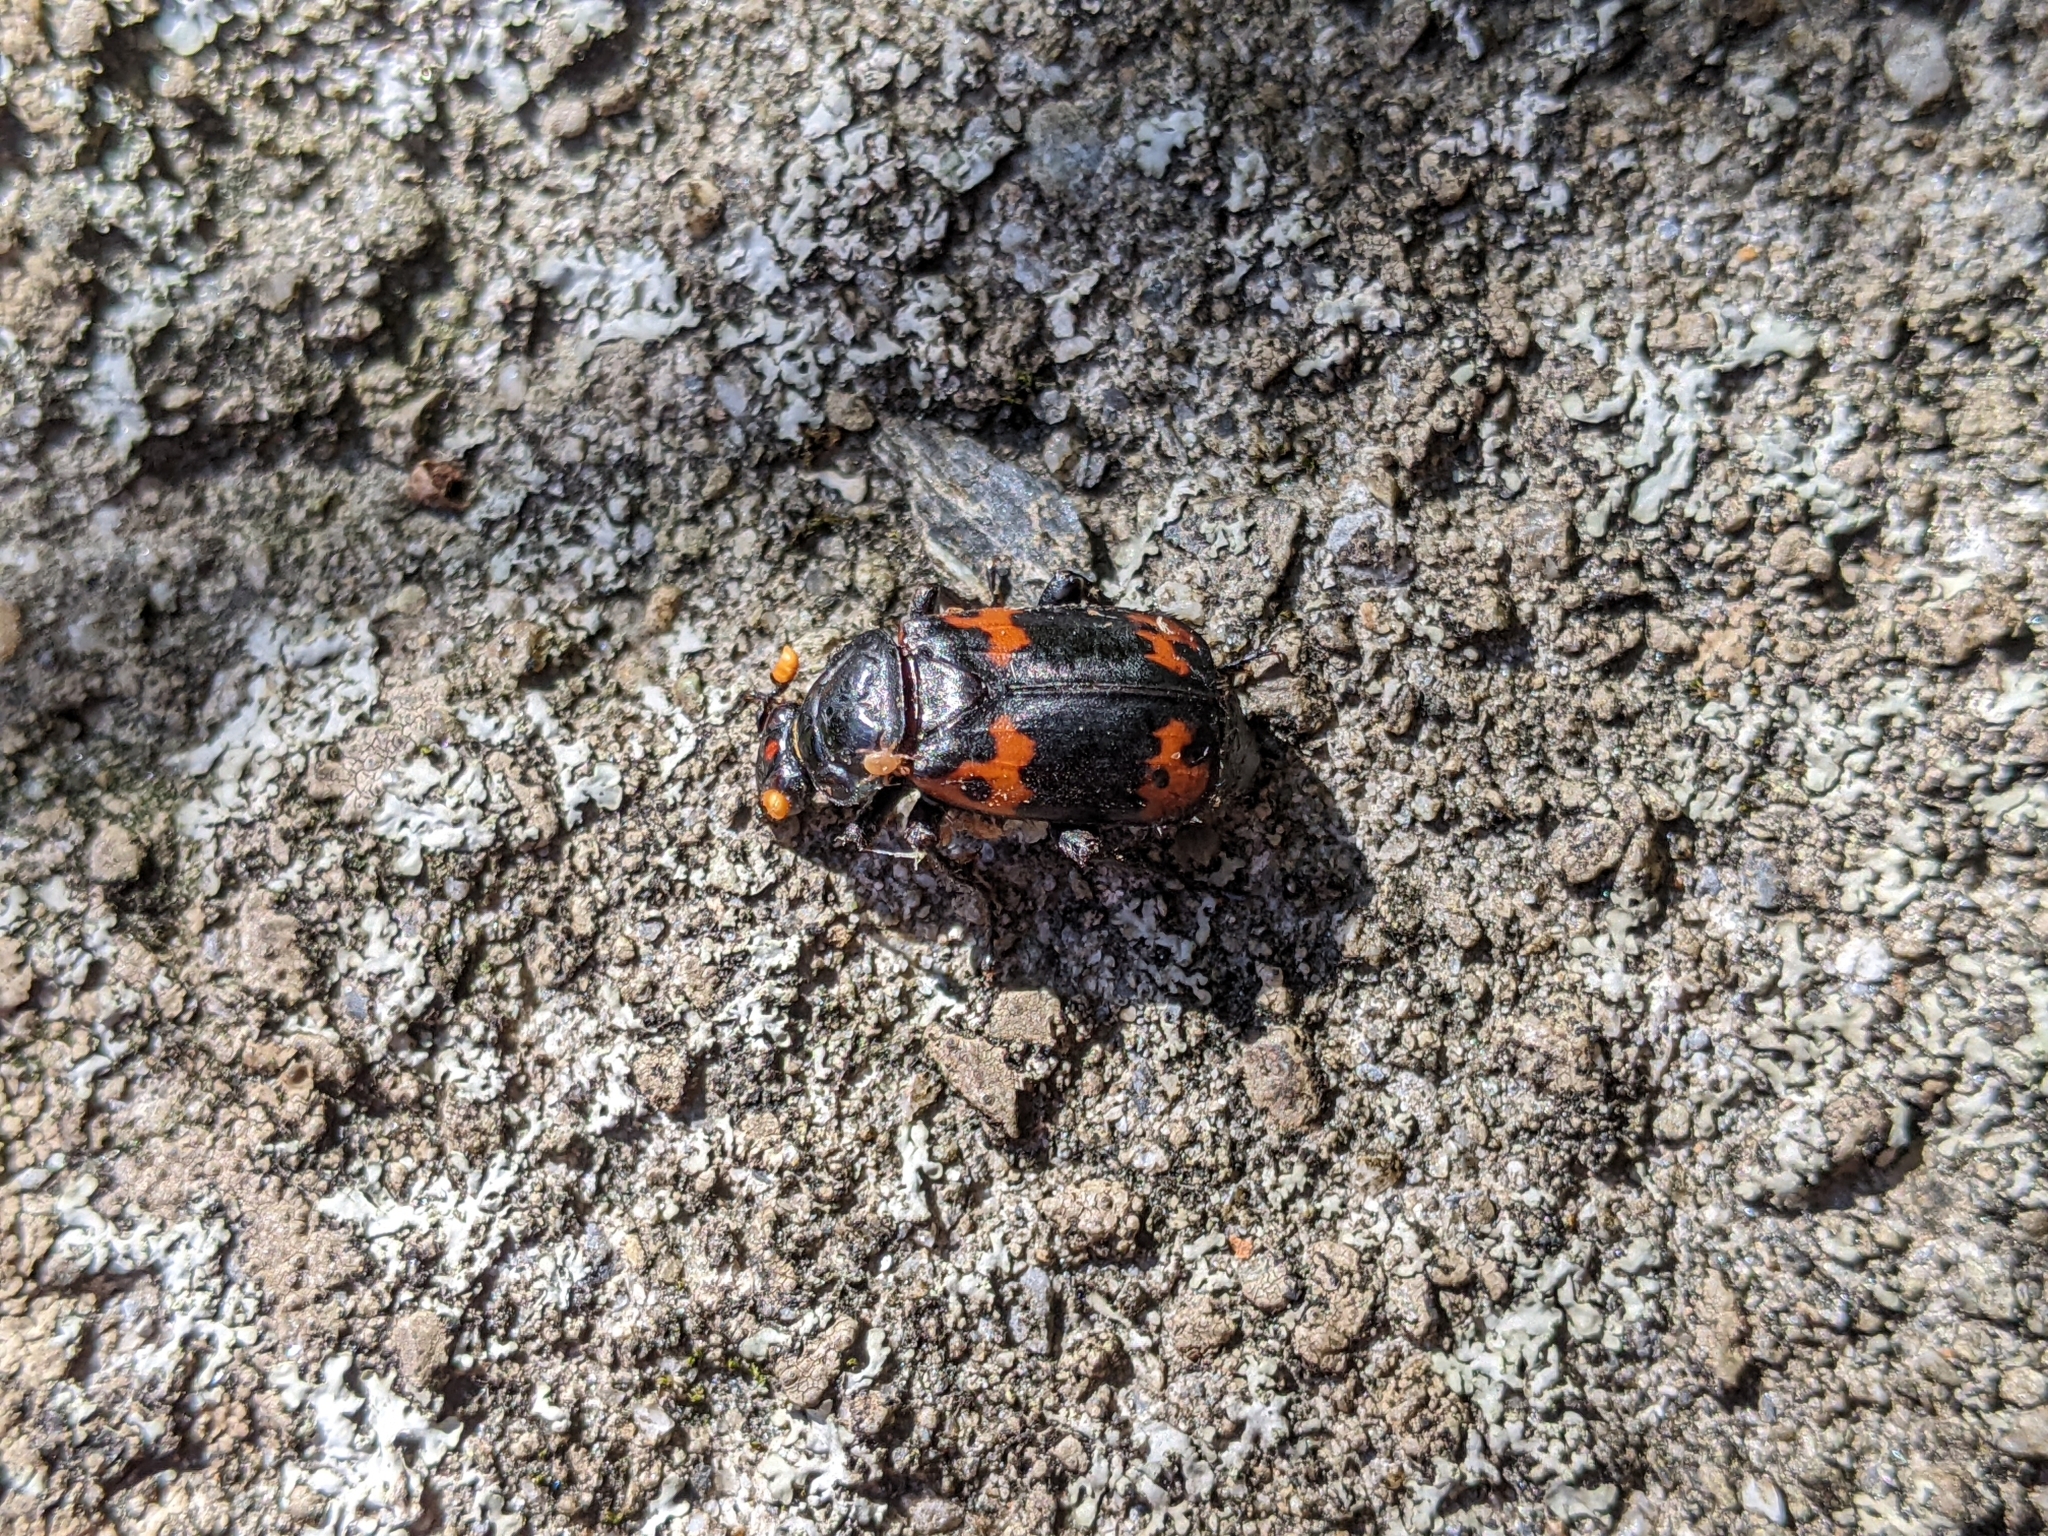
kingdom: Animalia
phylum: Arthropoda
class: Insecta
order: Coleoptera
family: Staphylinidae
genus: Nicrophorus
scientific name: Nicrophorus nepalensis
